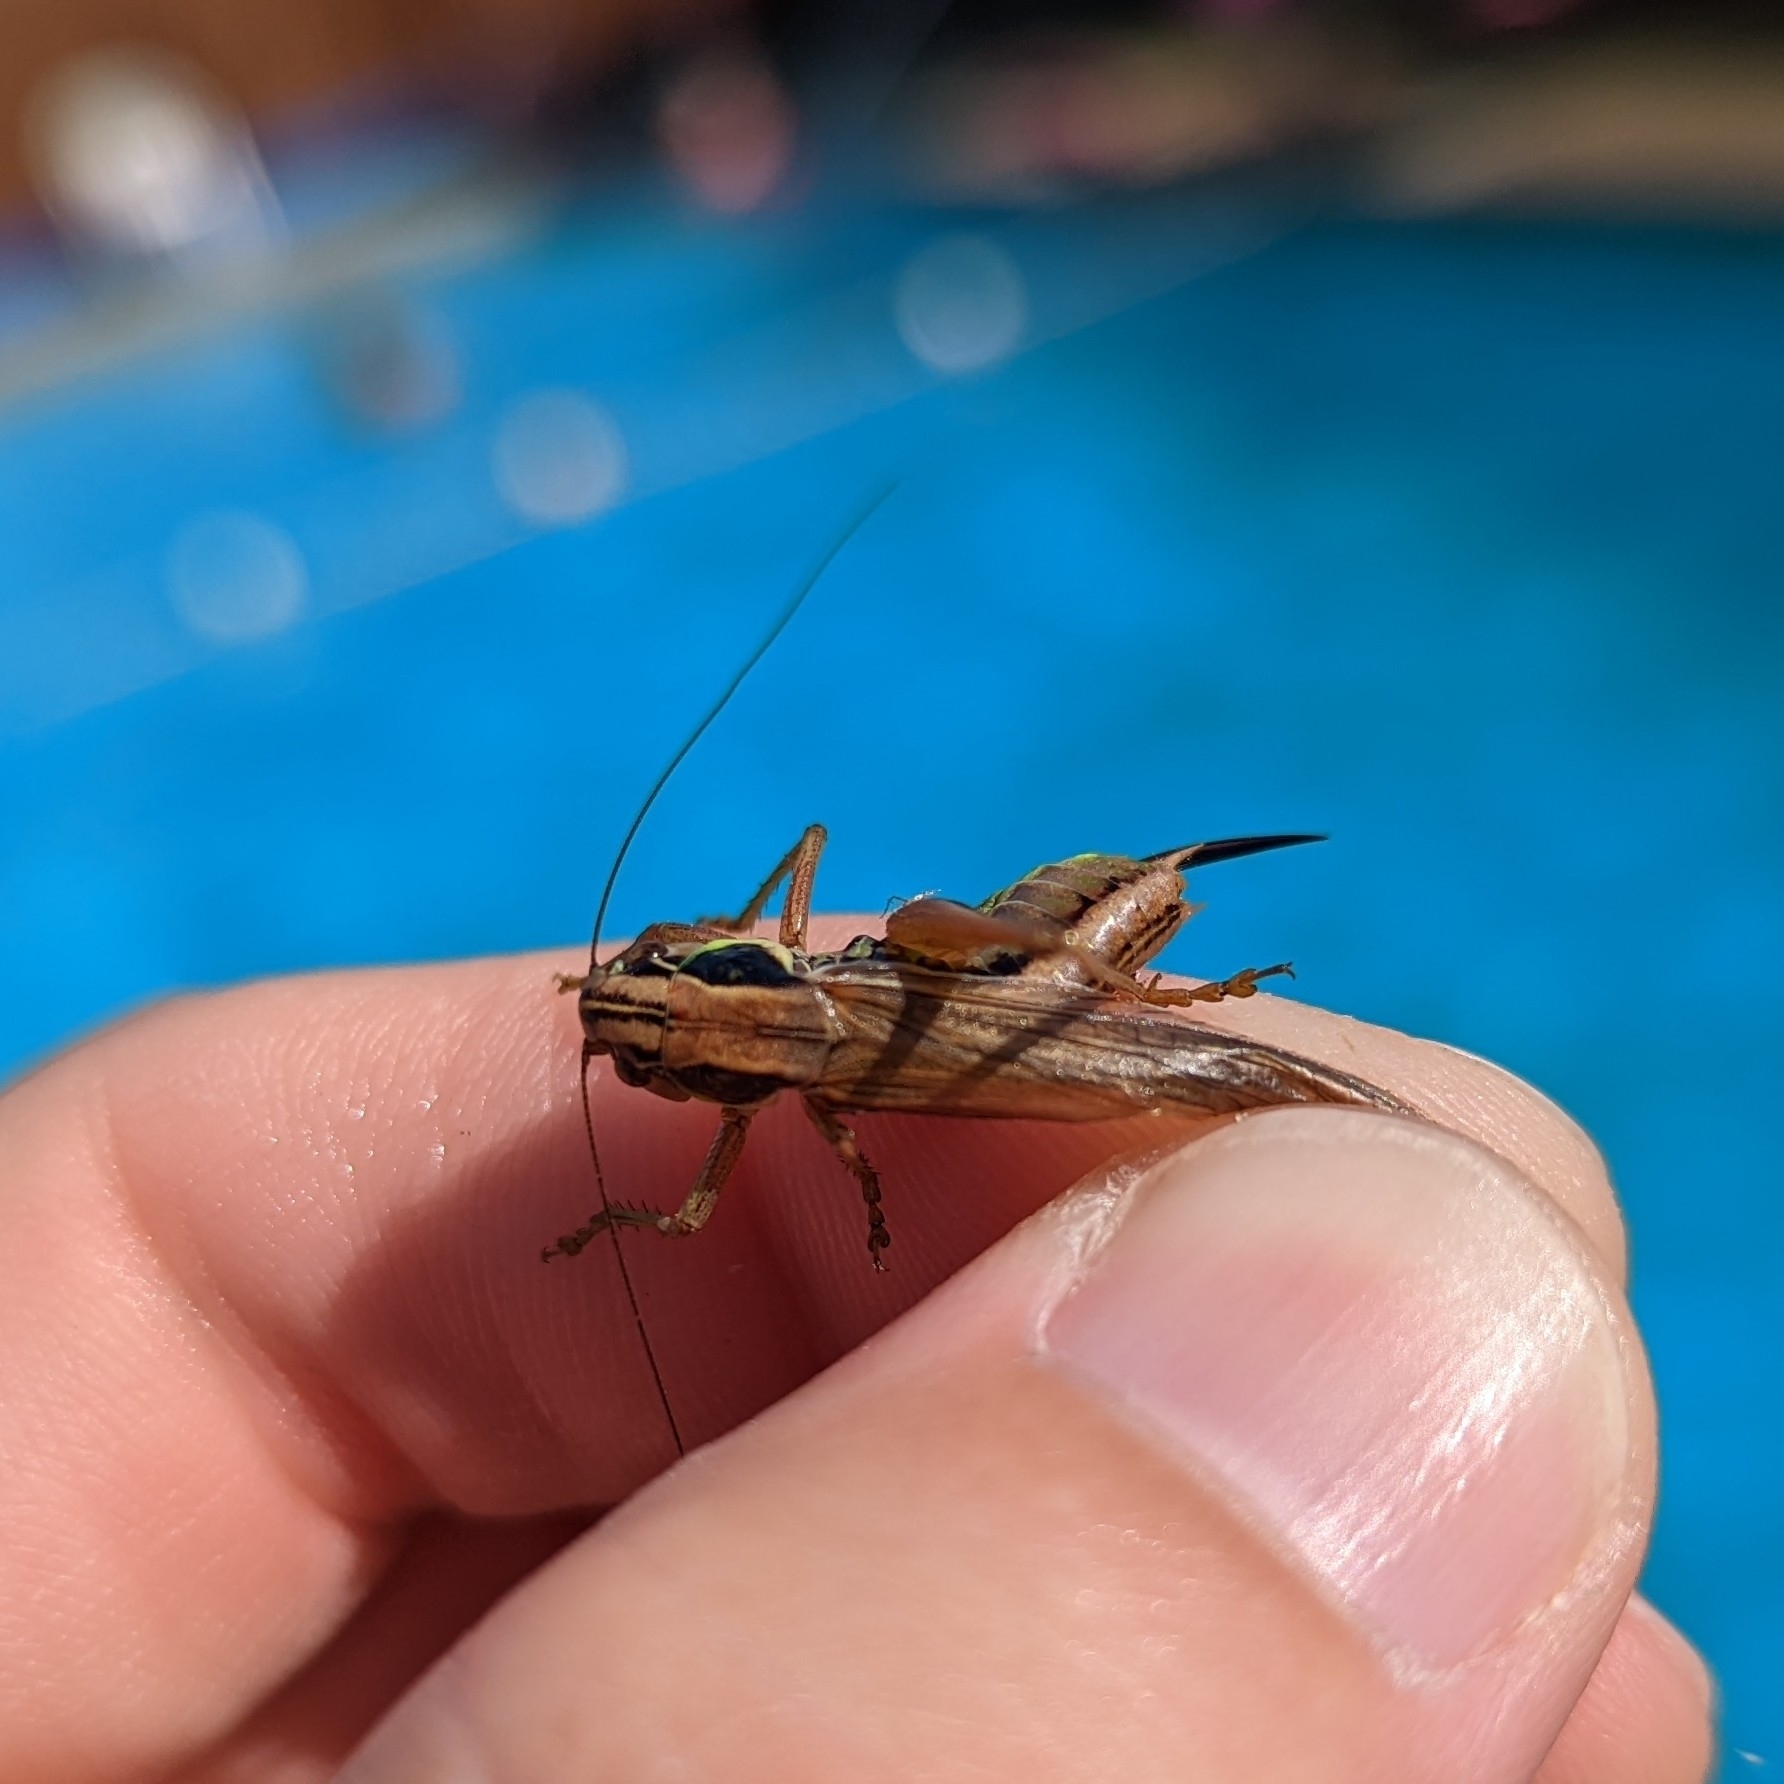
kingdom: Animalia
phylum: Arthropoda
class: Insecta
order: Orthoptera
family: Tettigoniidae
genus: Roeseliana
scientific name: Roeseliana roeselii
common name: Roesel's bush cricket
